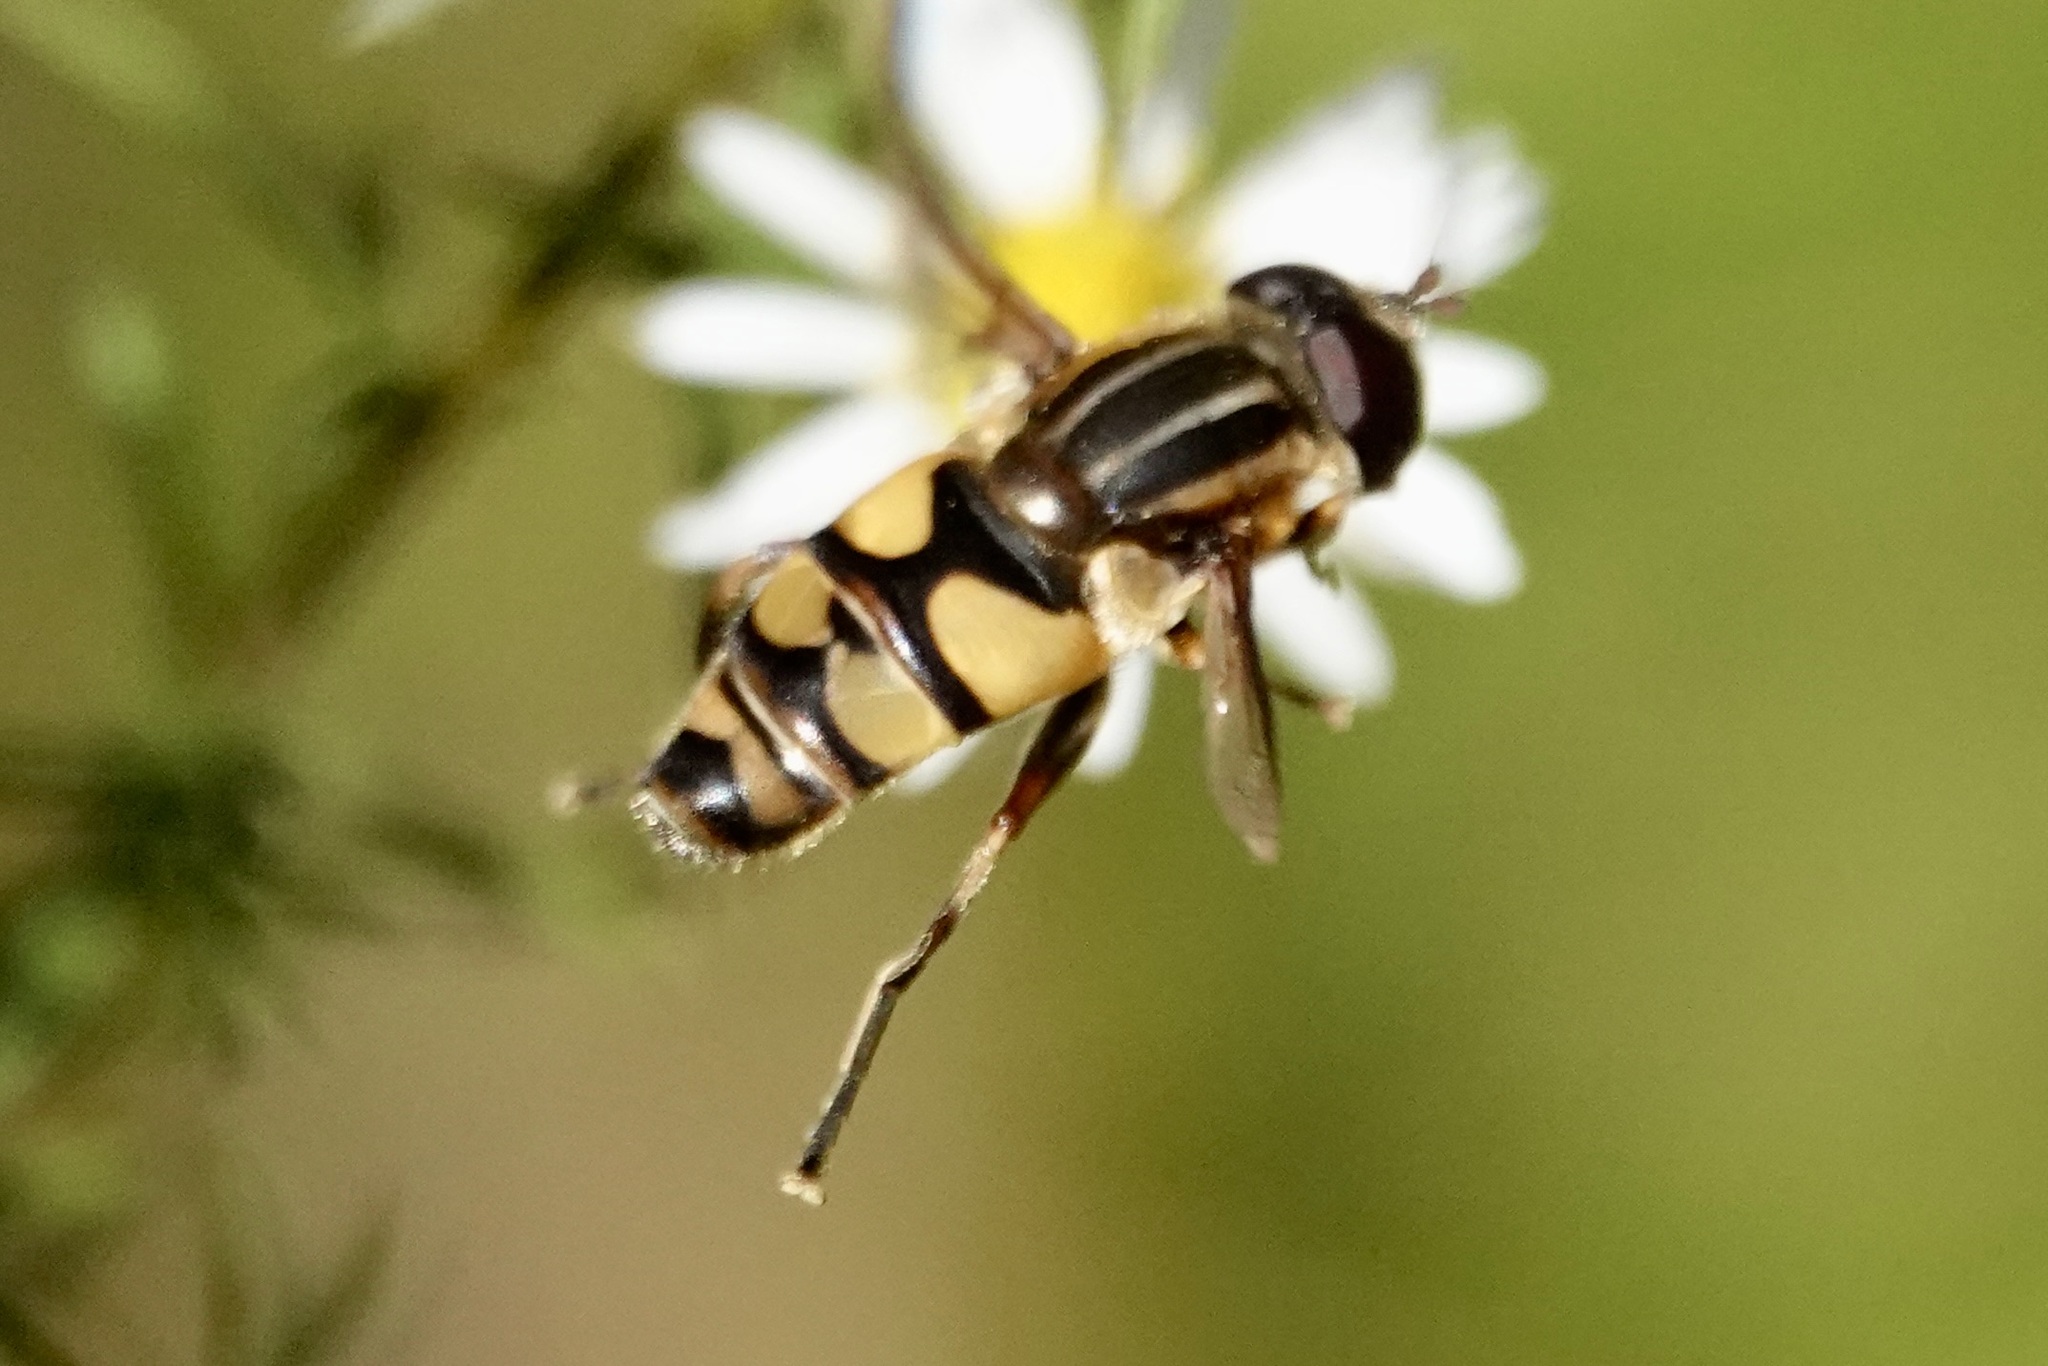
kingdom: Animalia
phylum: Arthropoda
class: Insecta
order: Diptera
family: Syrphidae
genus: Helophilus
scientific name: Helophilus fasciatus
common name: Narrow-headed marsh fly
